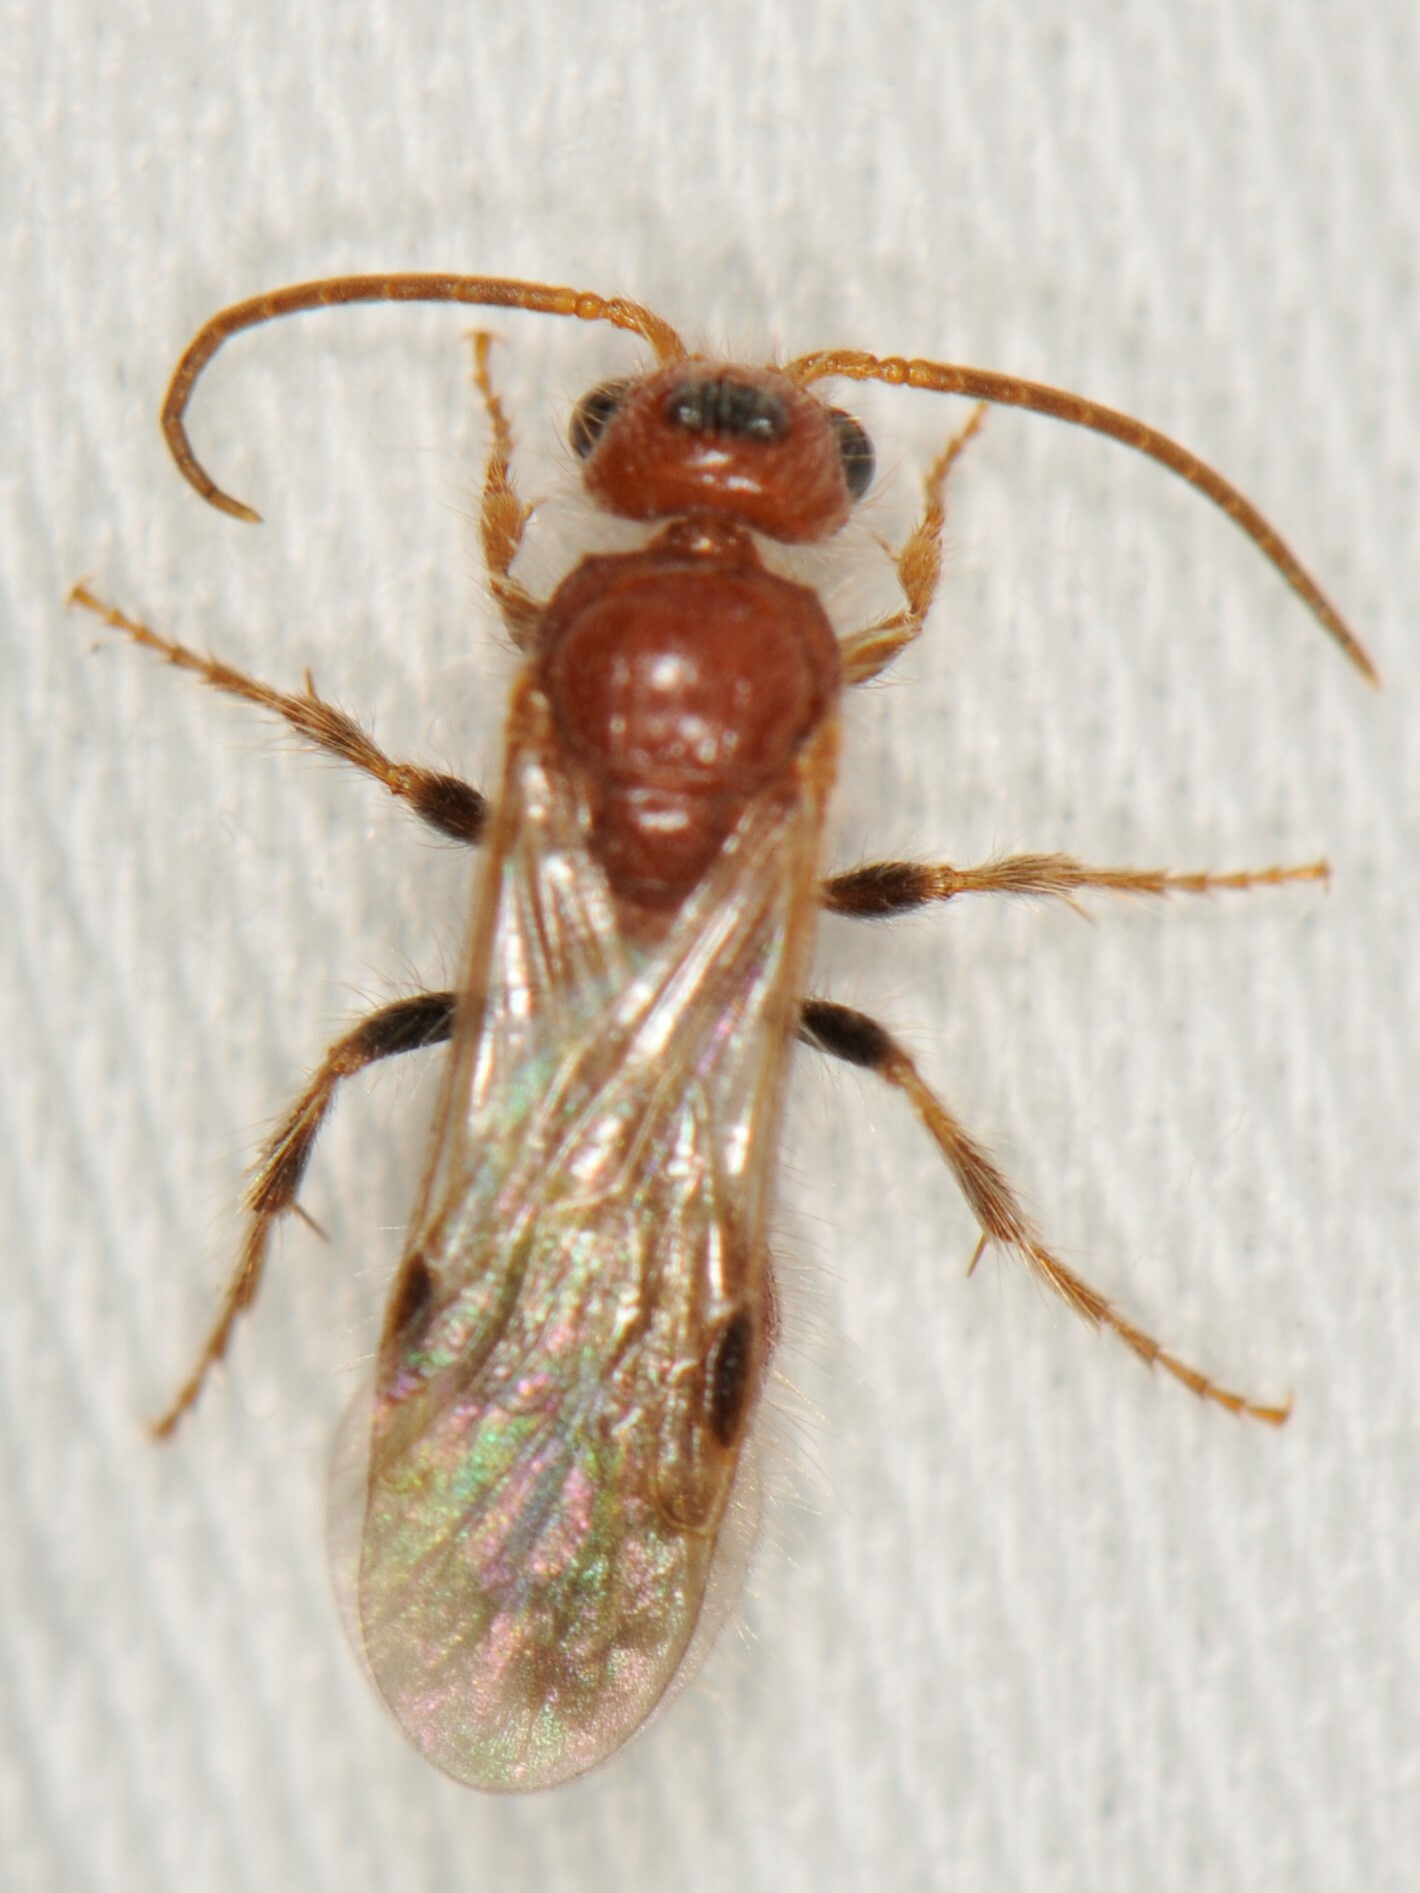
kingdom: Animalia
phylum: Arthropoda
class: Insecta
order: Hymenoptera
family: Mutillidae
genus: Sphaeropthalma
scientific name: Sphaeropthalma
